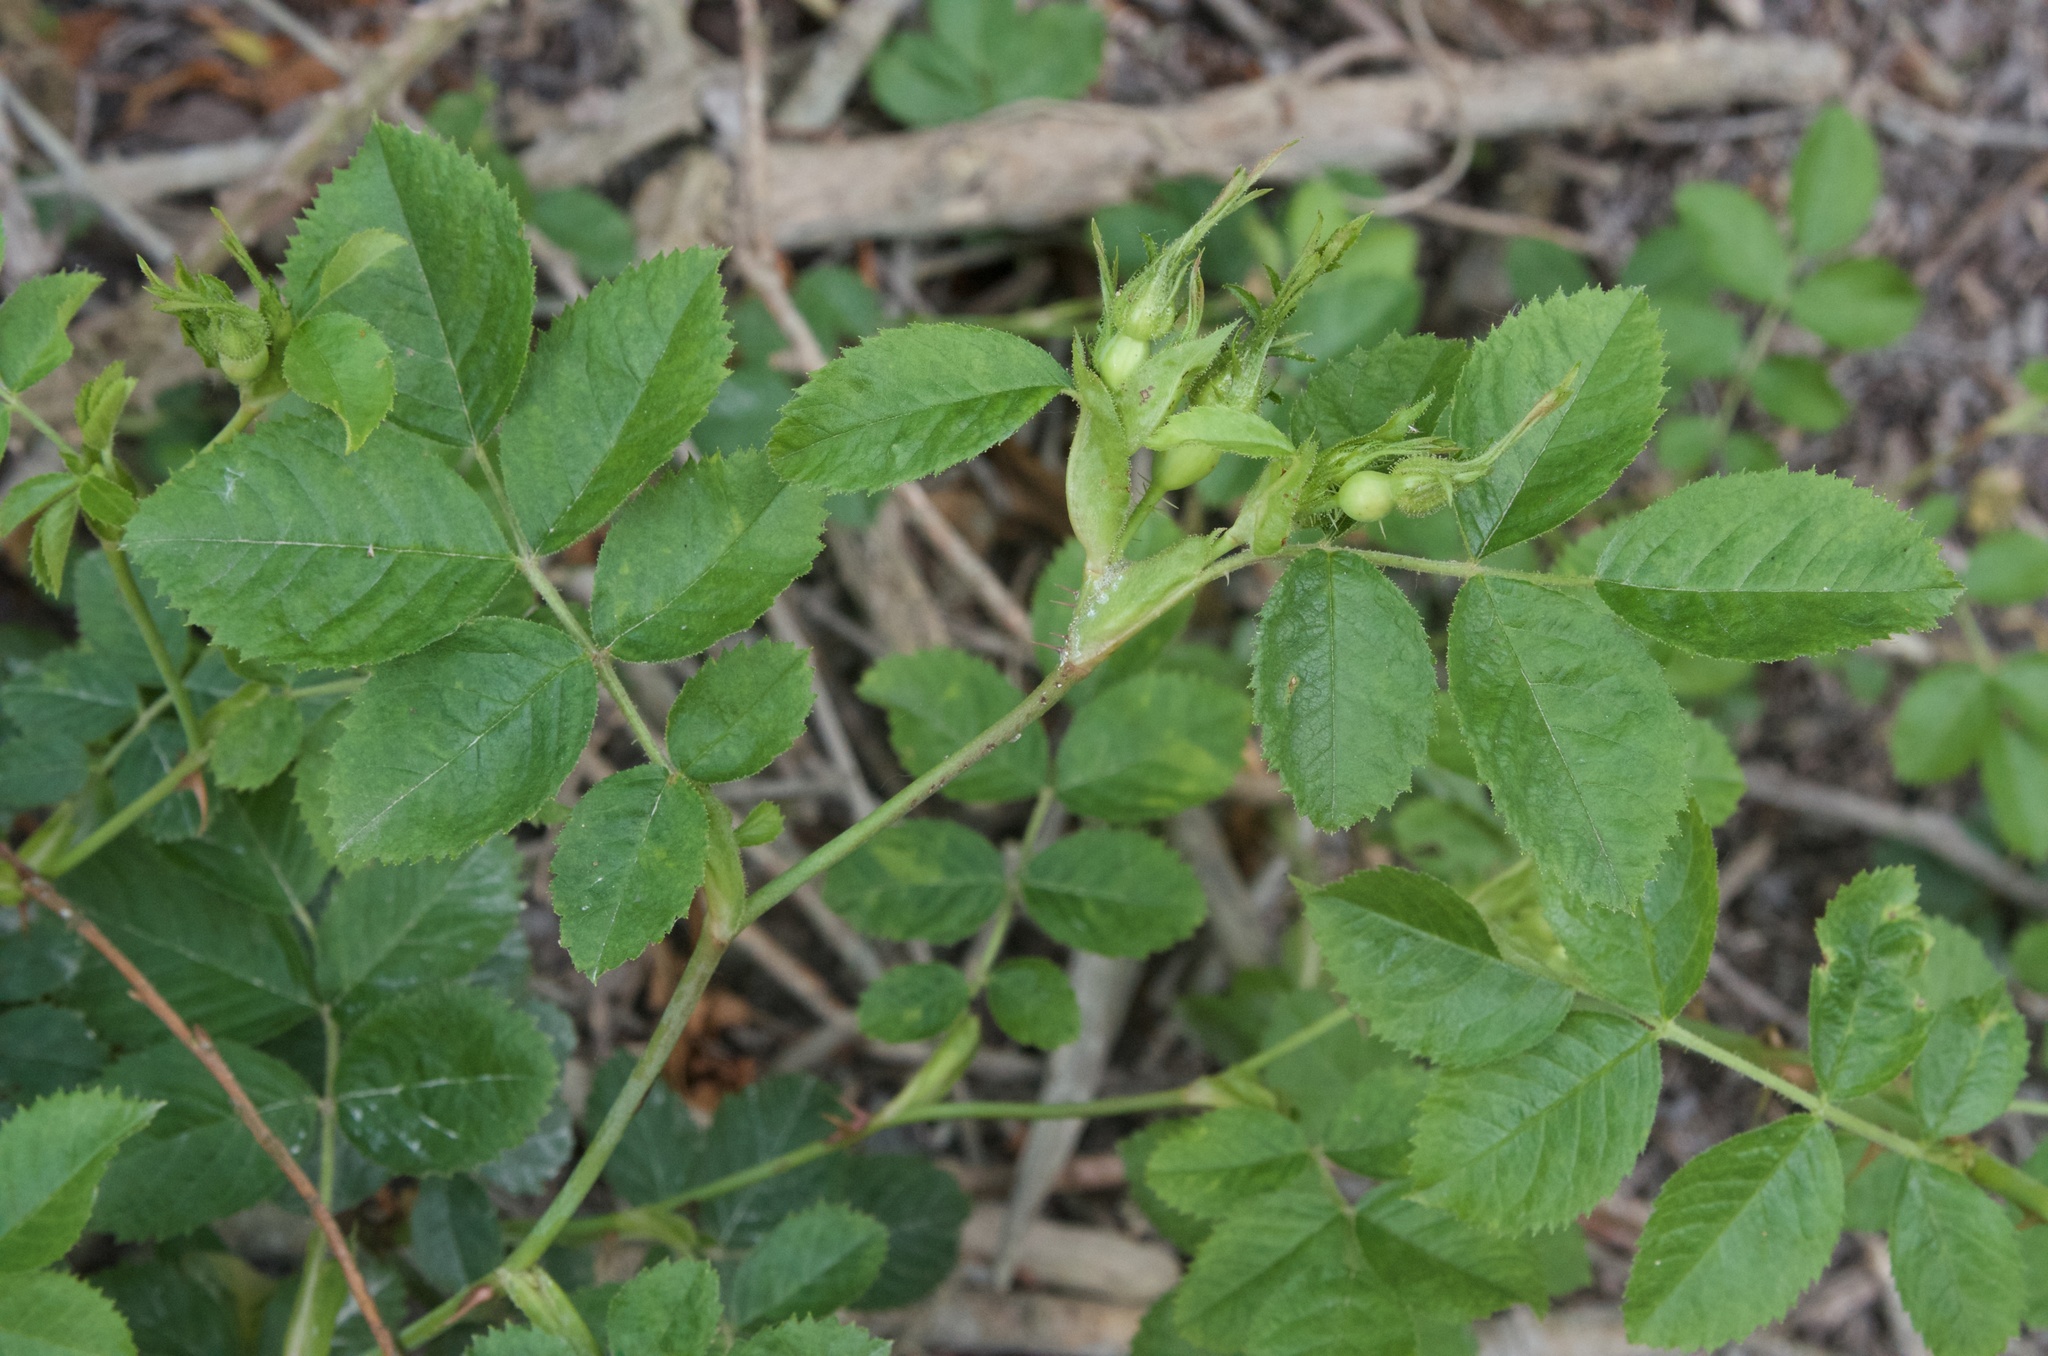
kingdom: Plantae
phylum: Tracheophyta
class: Magnoliopsida
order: Rosales
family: Rosaceae
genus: Rosa
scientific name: Rosa rubiginosa
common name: Sweet-briar
